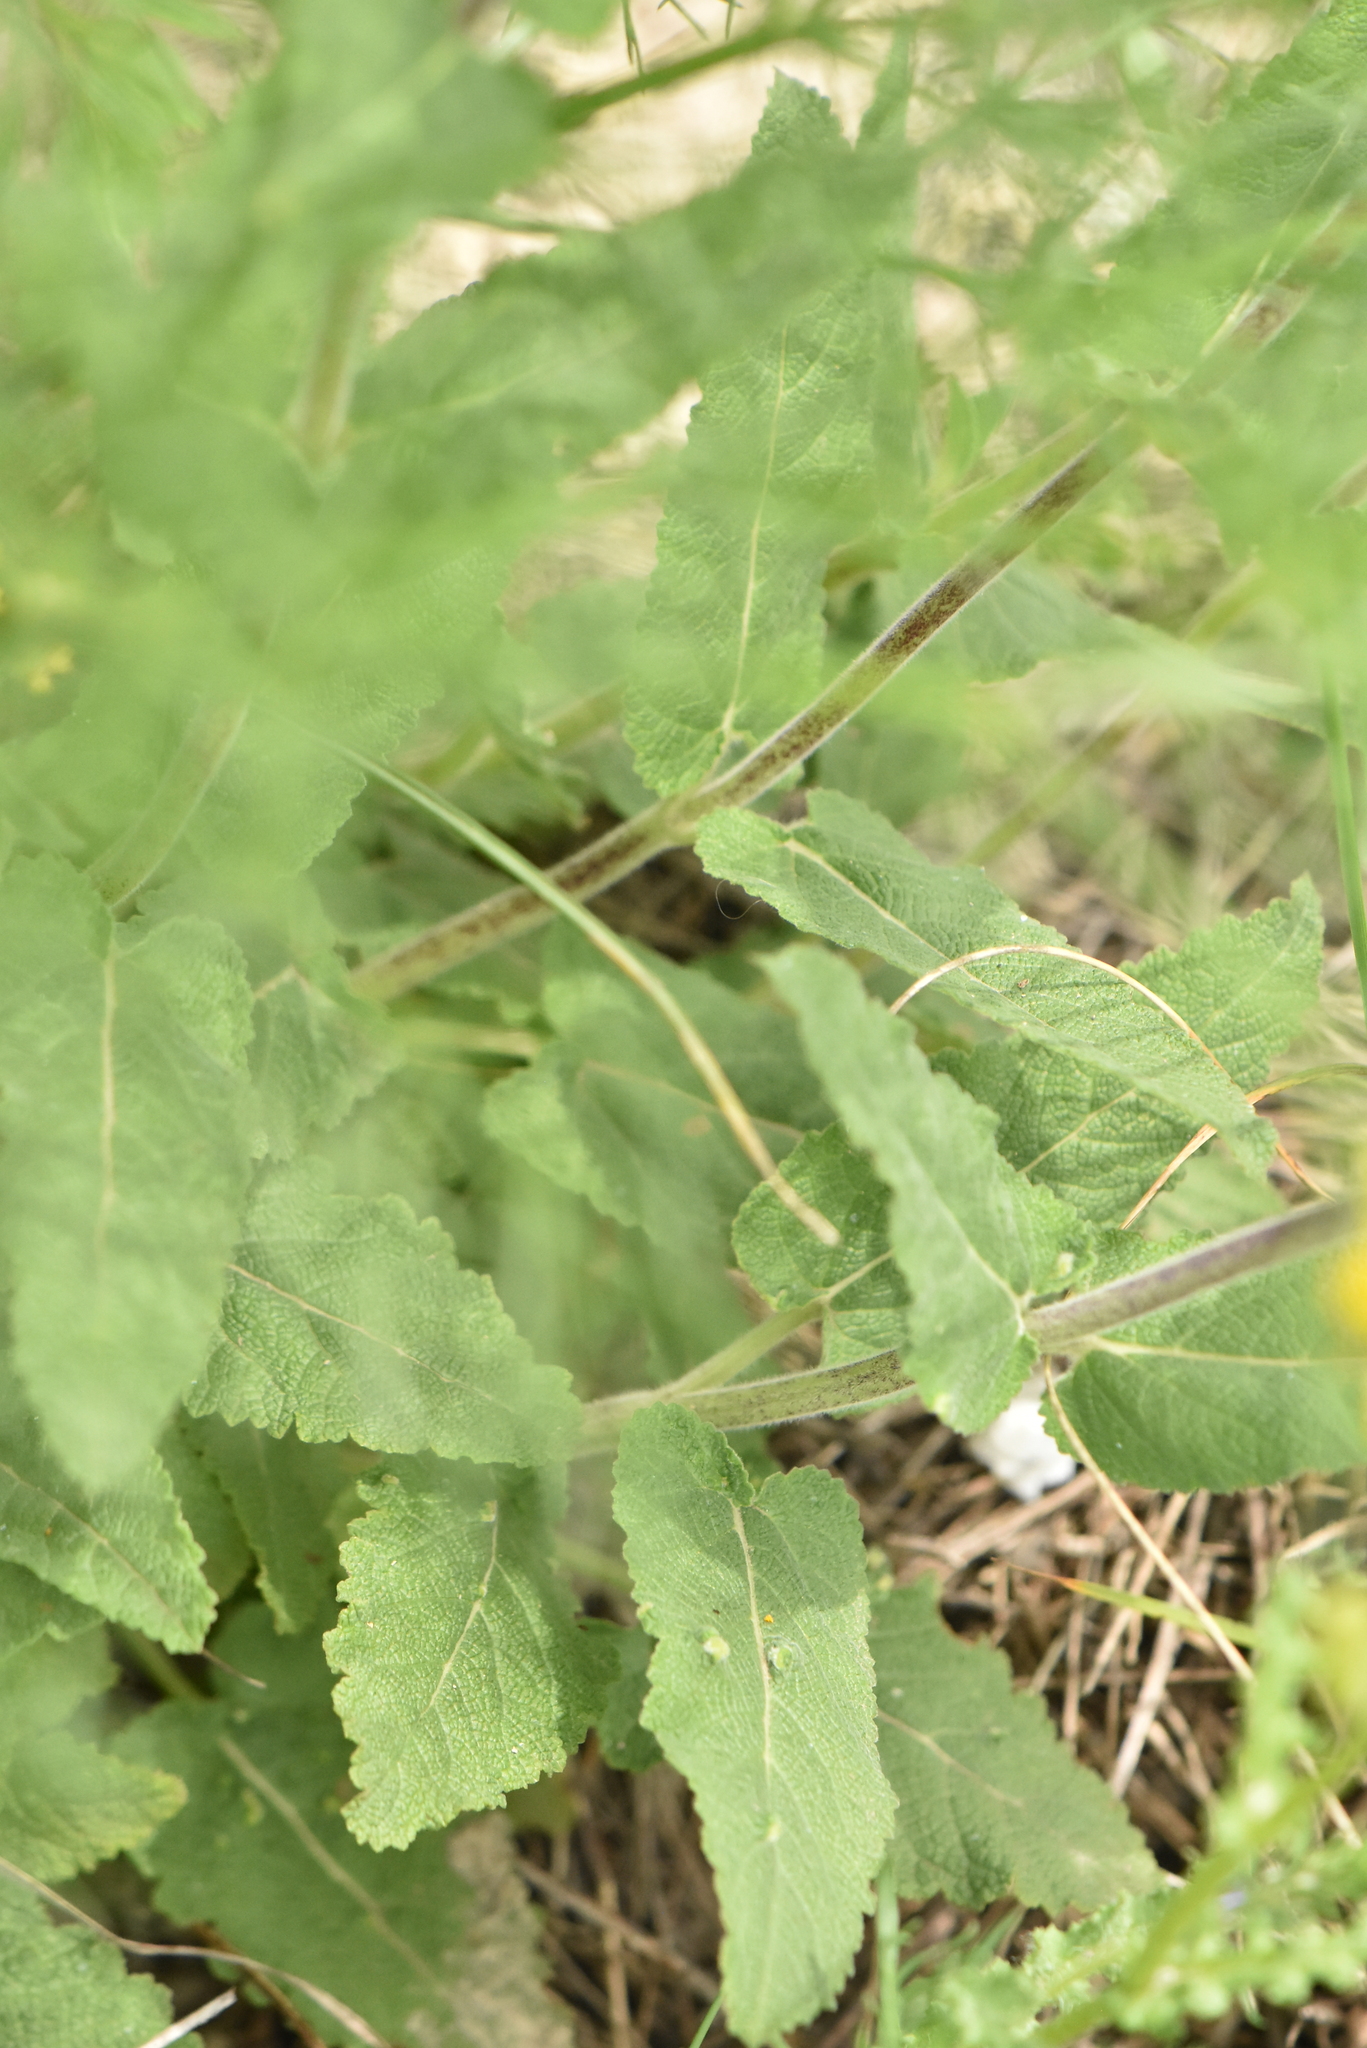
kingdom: Plantae
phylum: Tracheophyta
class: Magnoliopsida
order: Lamiales
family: Lamiaceae
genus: Salvia
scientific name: Salvia nemorosa
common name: Balkan clary
